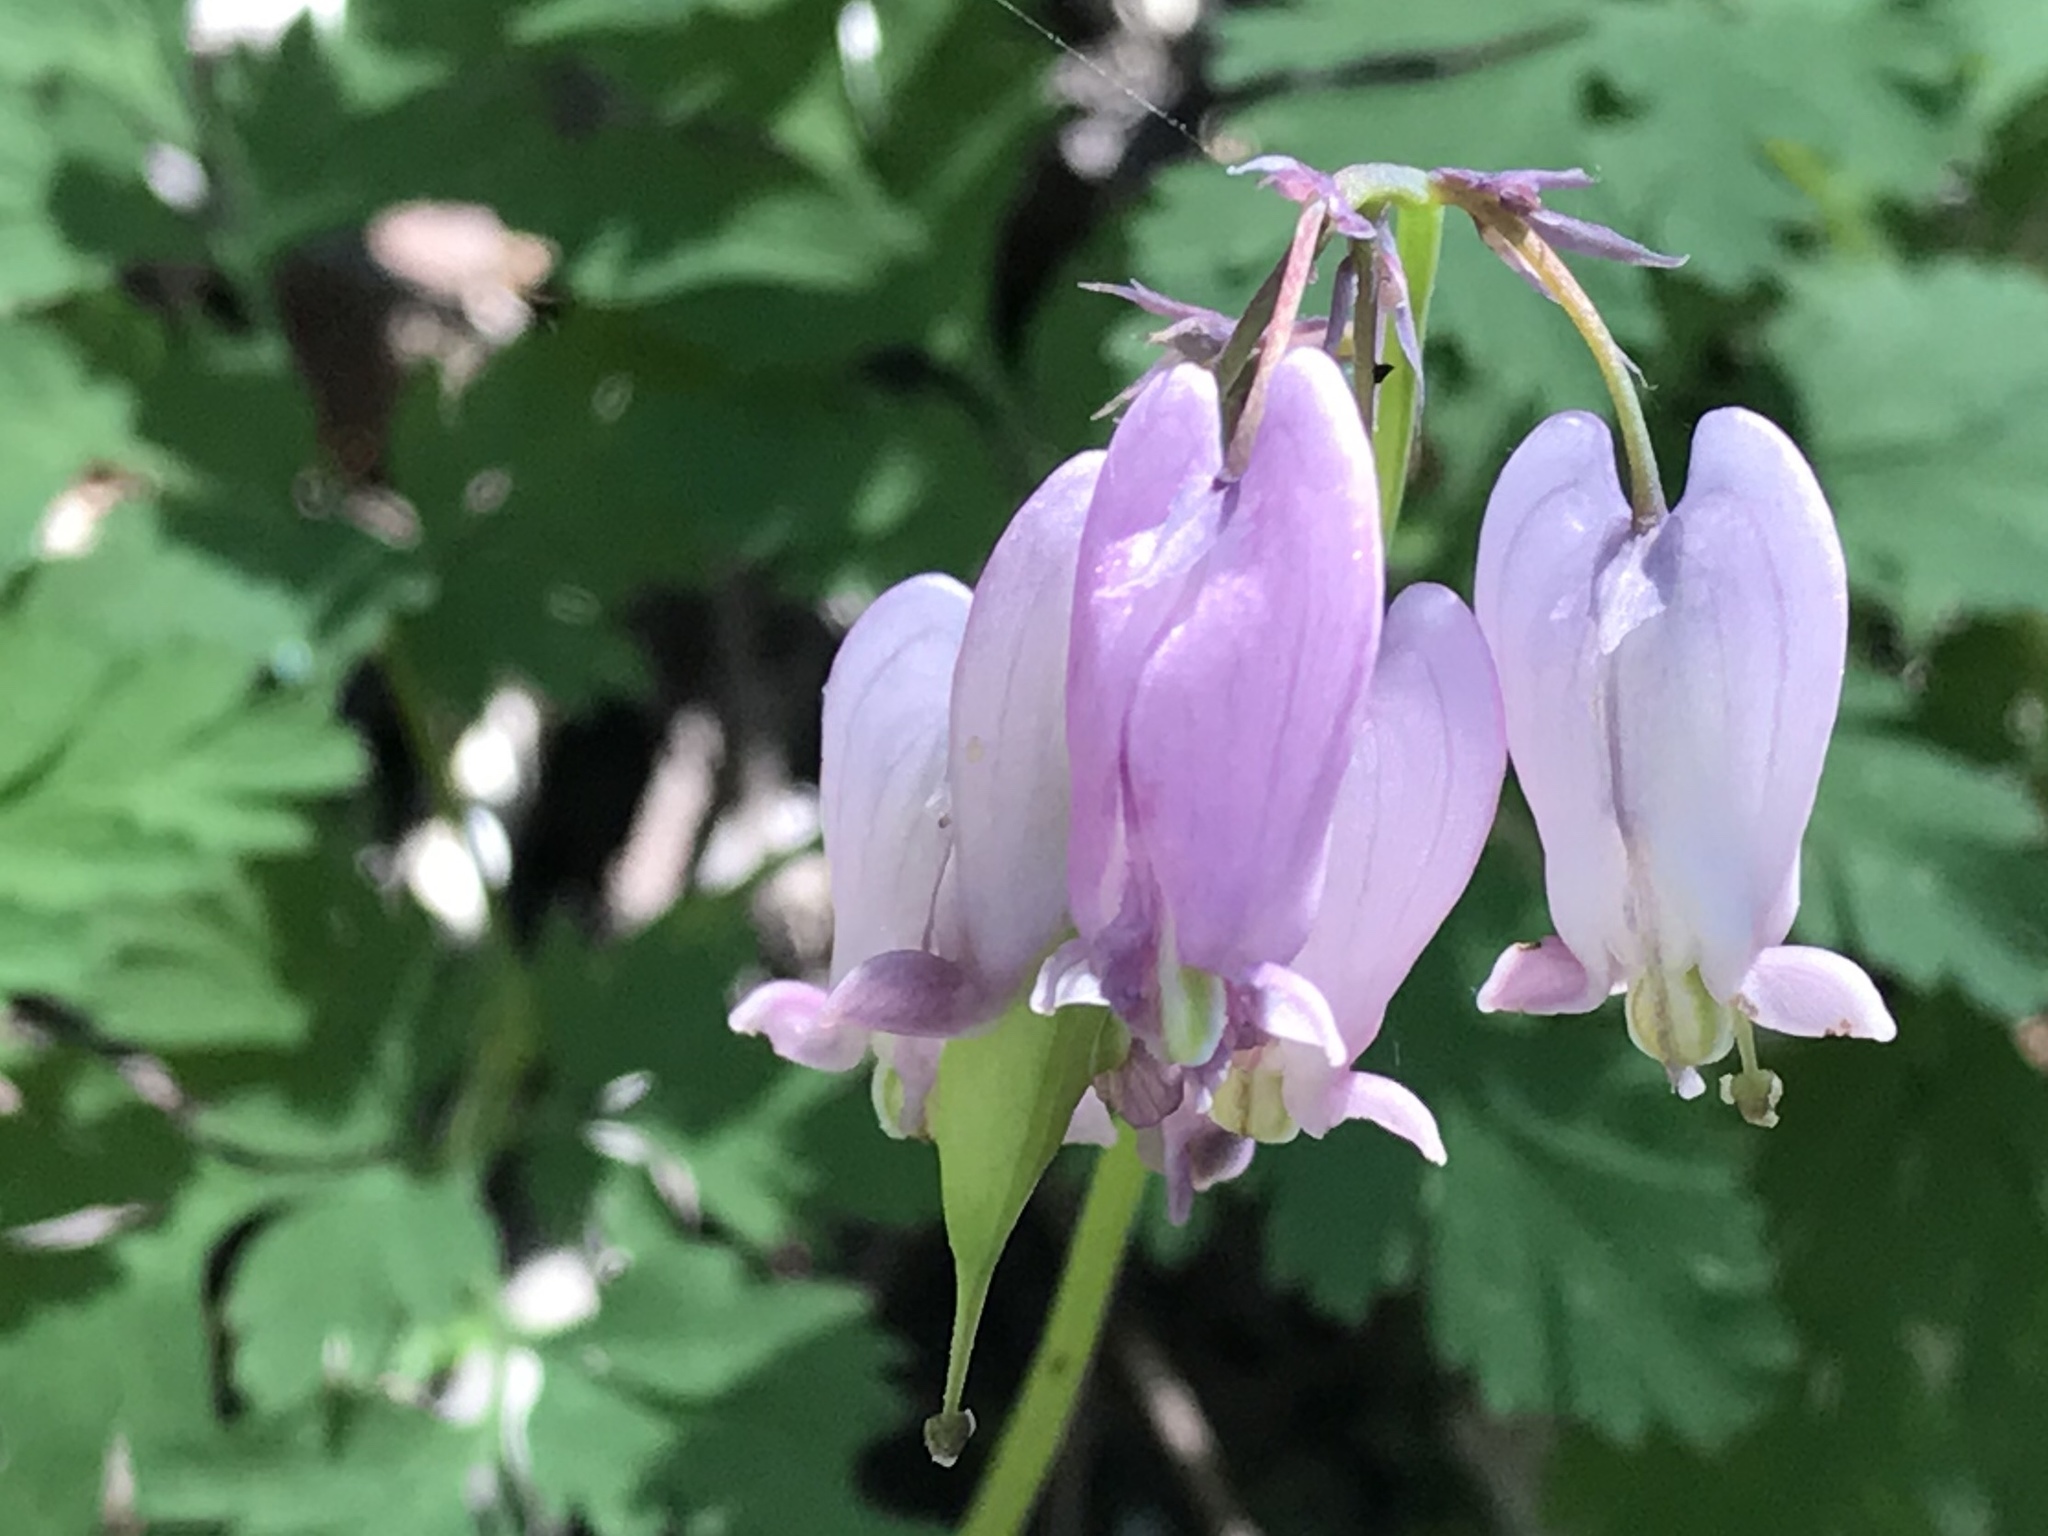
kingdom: Plantae
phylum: Tracheophyta
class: Magnoliopsida
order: Ranunculales
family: Papaveraceae
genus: Dicentra
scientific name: Dicentra formosa
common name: Bleeding-heart
